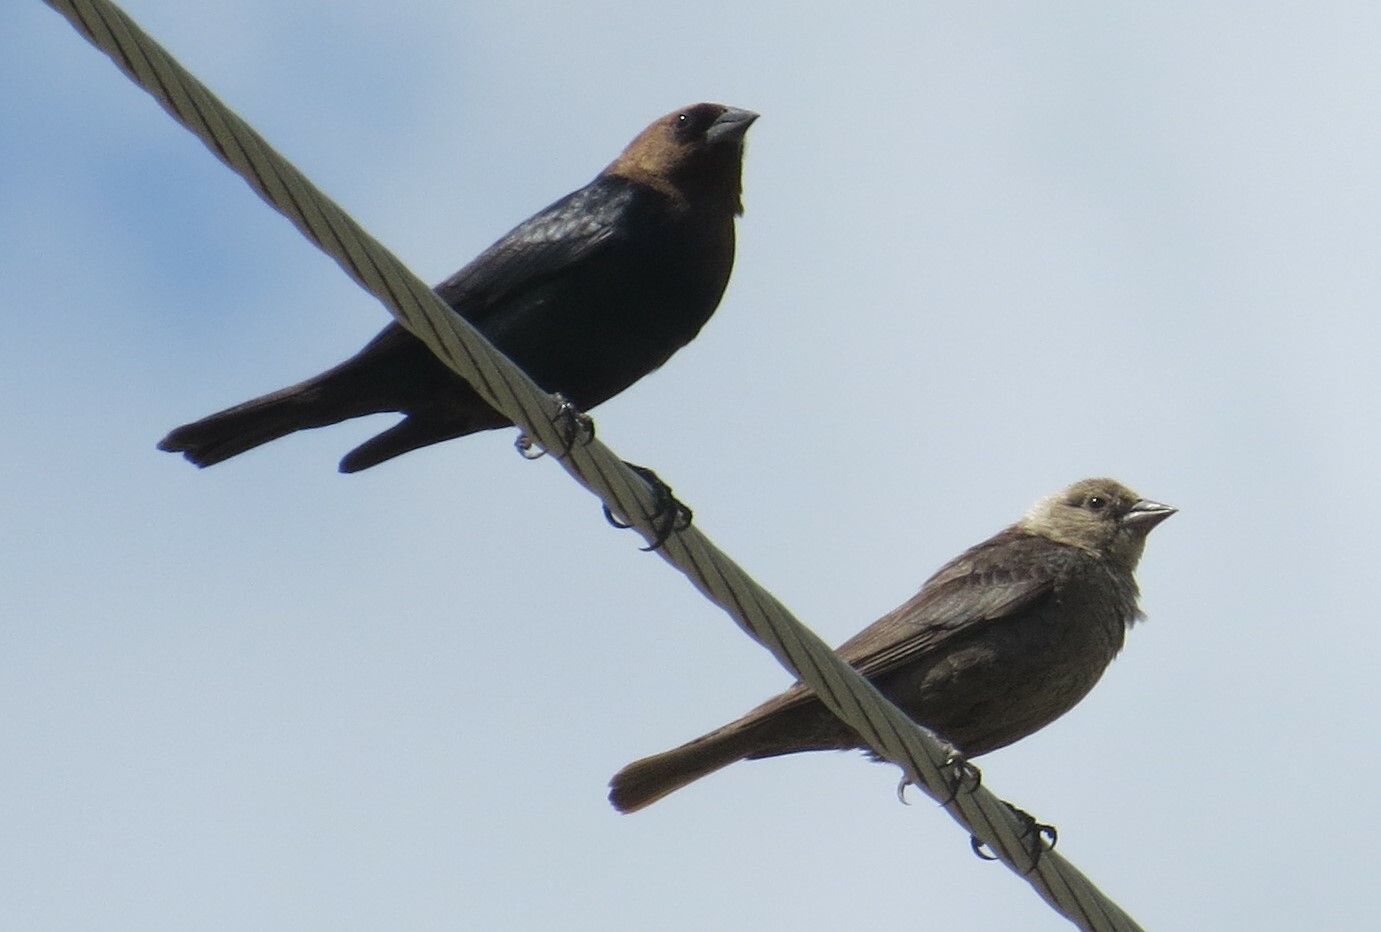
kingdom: Animalia
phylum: Chordata
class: Aves
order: Passeriformes
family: Icteridae
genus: Molothrus
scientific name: Molothrus ater
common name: Brown-headed cowbird
